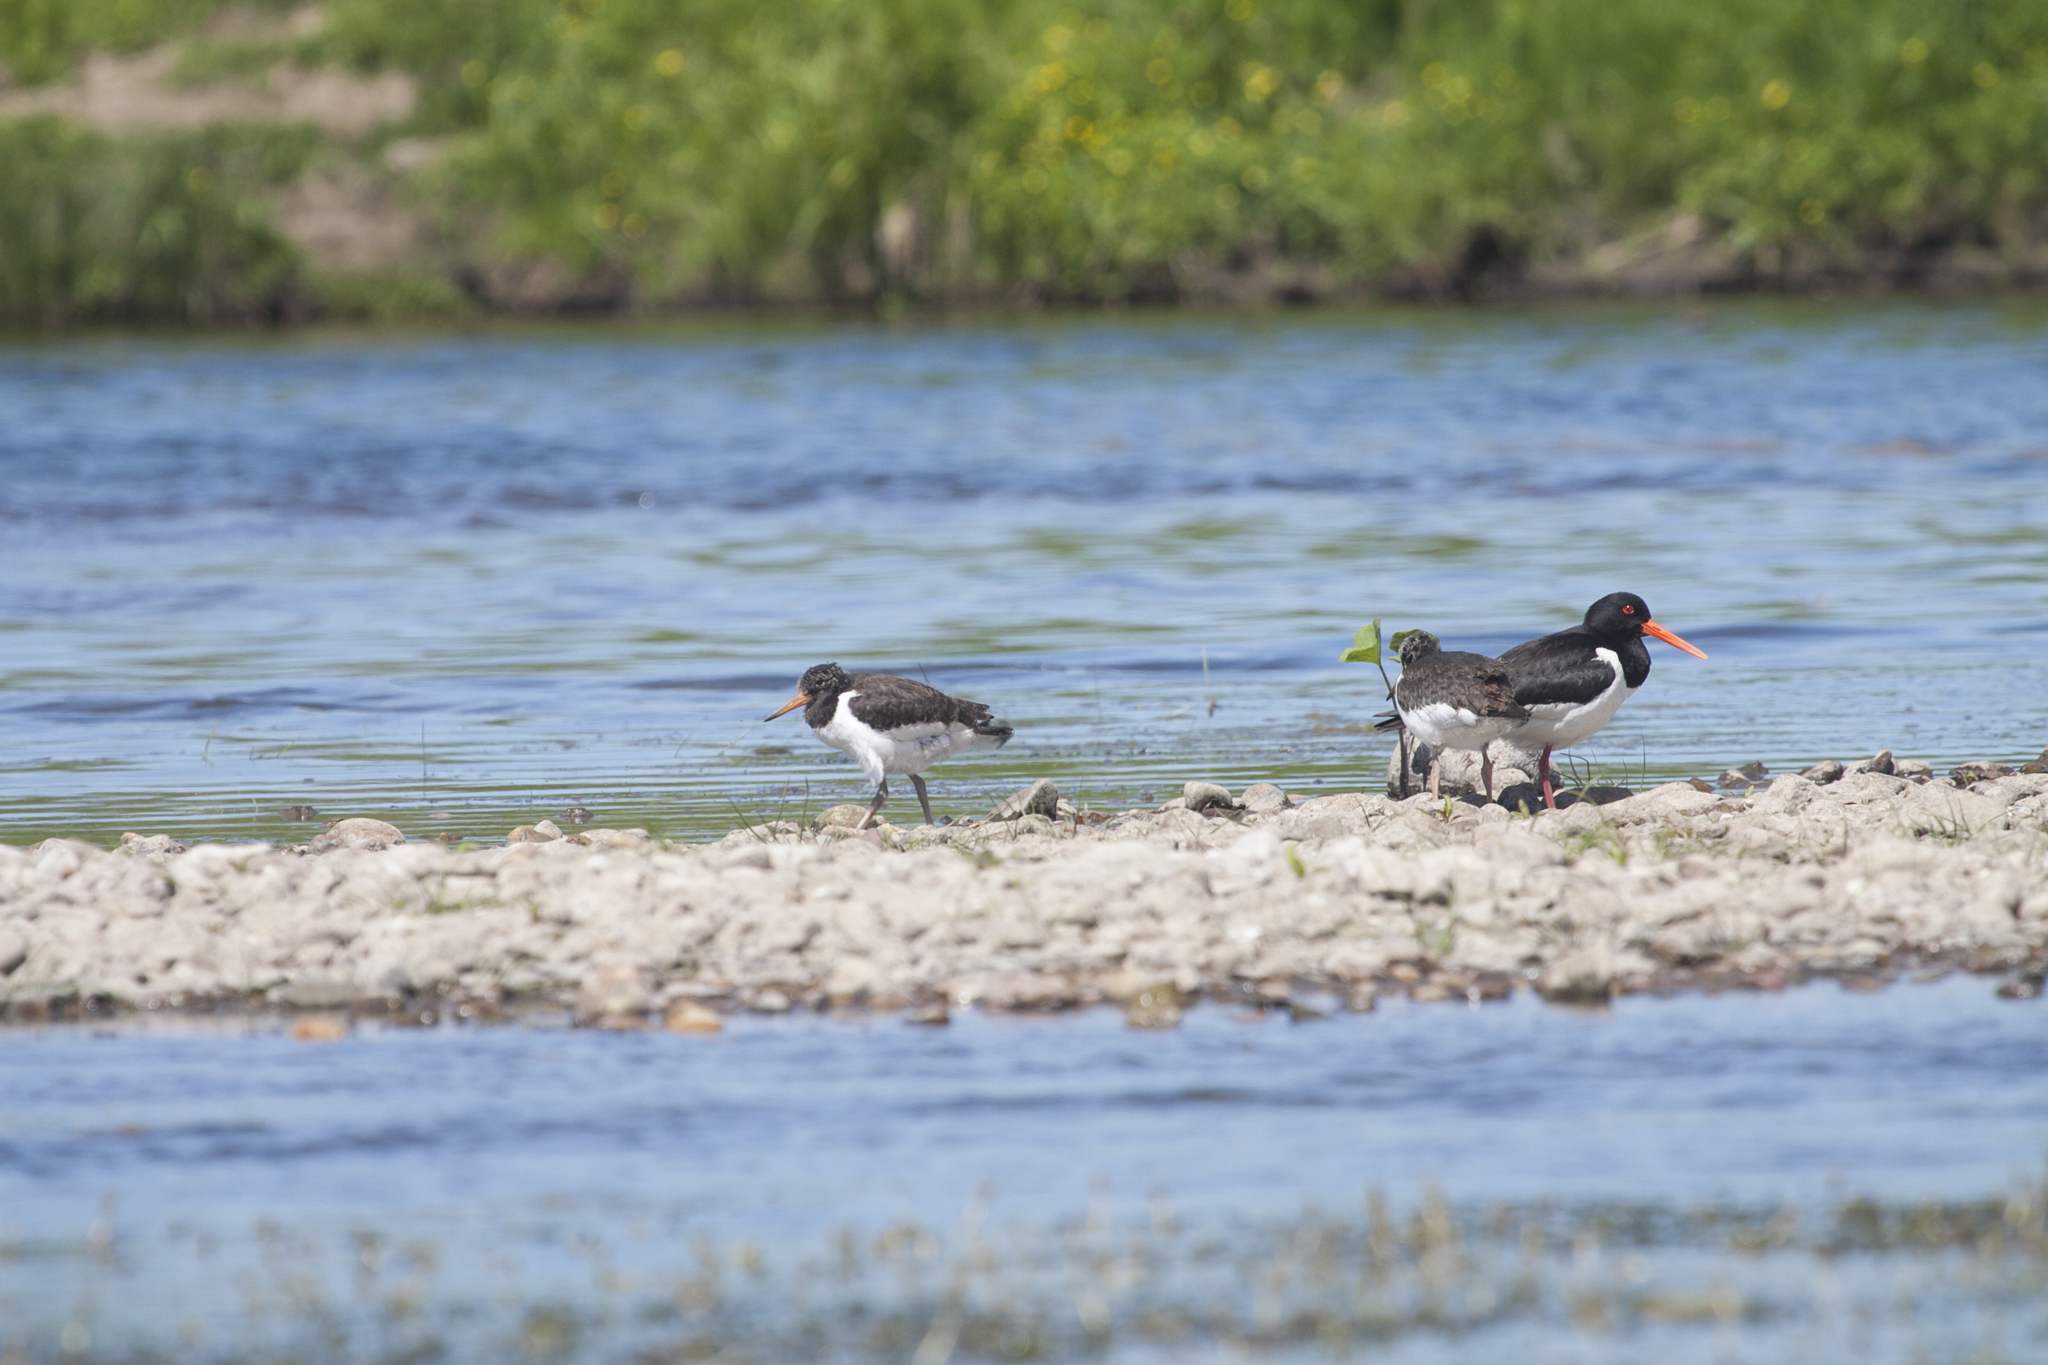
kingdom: Animalia
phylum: Chordata
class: Aves
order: Charadriiformes
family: Haematopodidae
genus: Haematopus
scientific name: Haematopus ostralegus
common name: Eurasian oystercatcher
